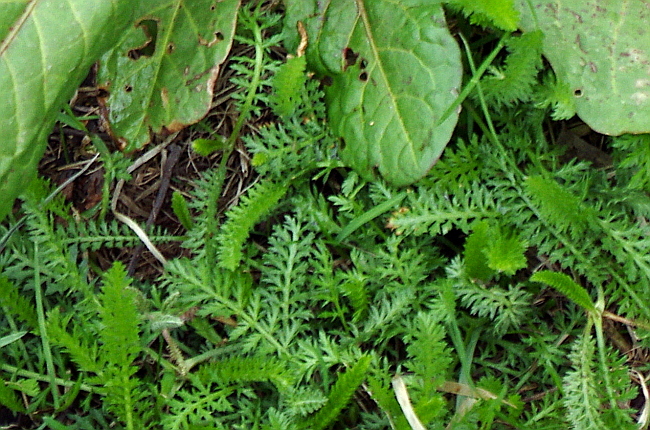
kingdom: Plantae
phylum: Tracheophyta
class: Magnoliopsida
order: Asterales
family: Asteraceae
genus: Achillea
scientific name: Achillea millefolium
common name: Yarrow
